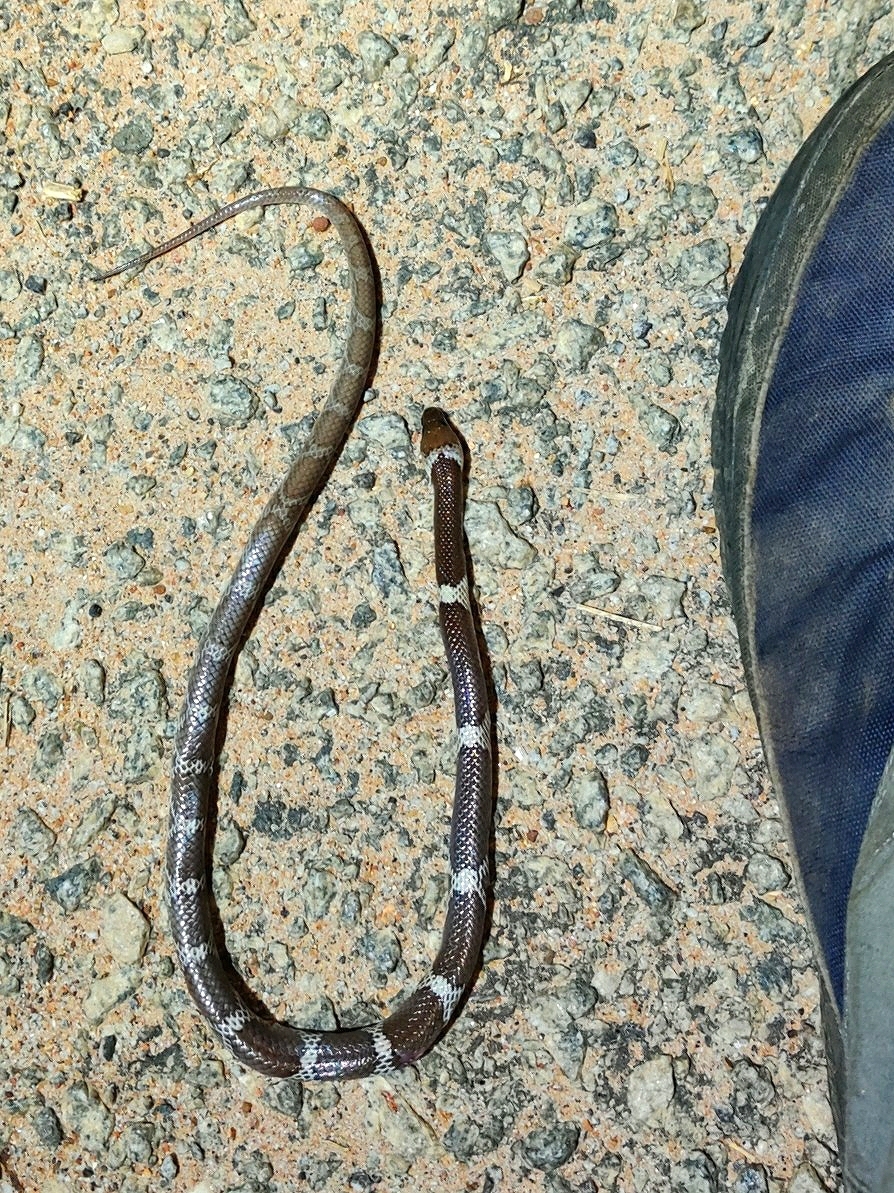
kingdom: Animalia
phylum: Chordata
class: Squamata
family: Colubridae
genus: Lycodon
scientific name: Lycodon aulicus
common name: Common wolf snake
